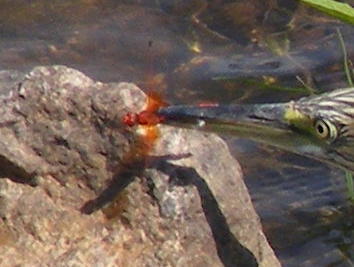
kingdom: Animalia
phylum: Arthropoda
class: Insecta
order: Odonata
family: Libellulidae
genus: Trithemis
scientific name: Trithemis kirbyi
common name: Kirby's dropwing
